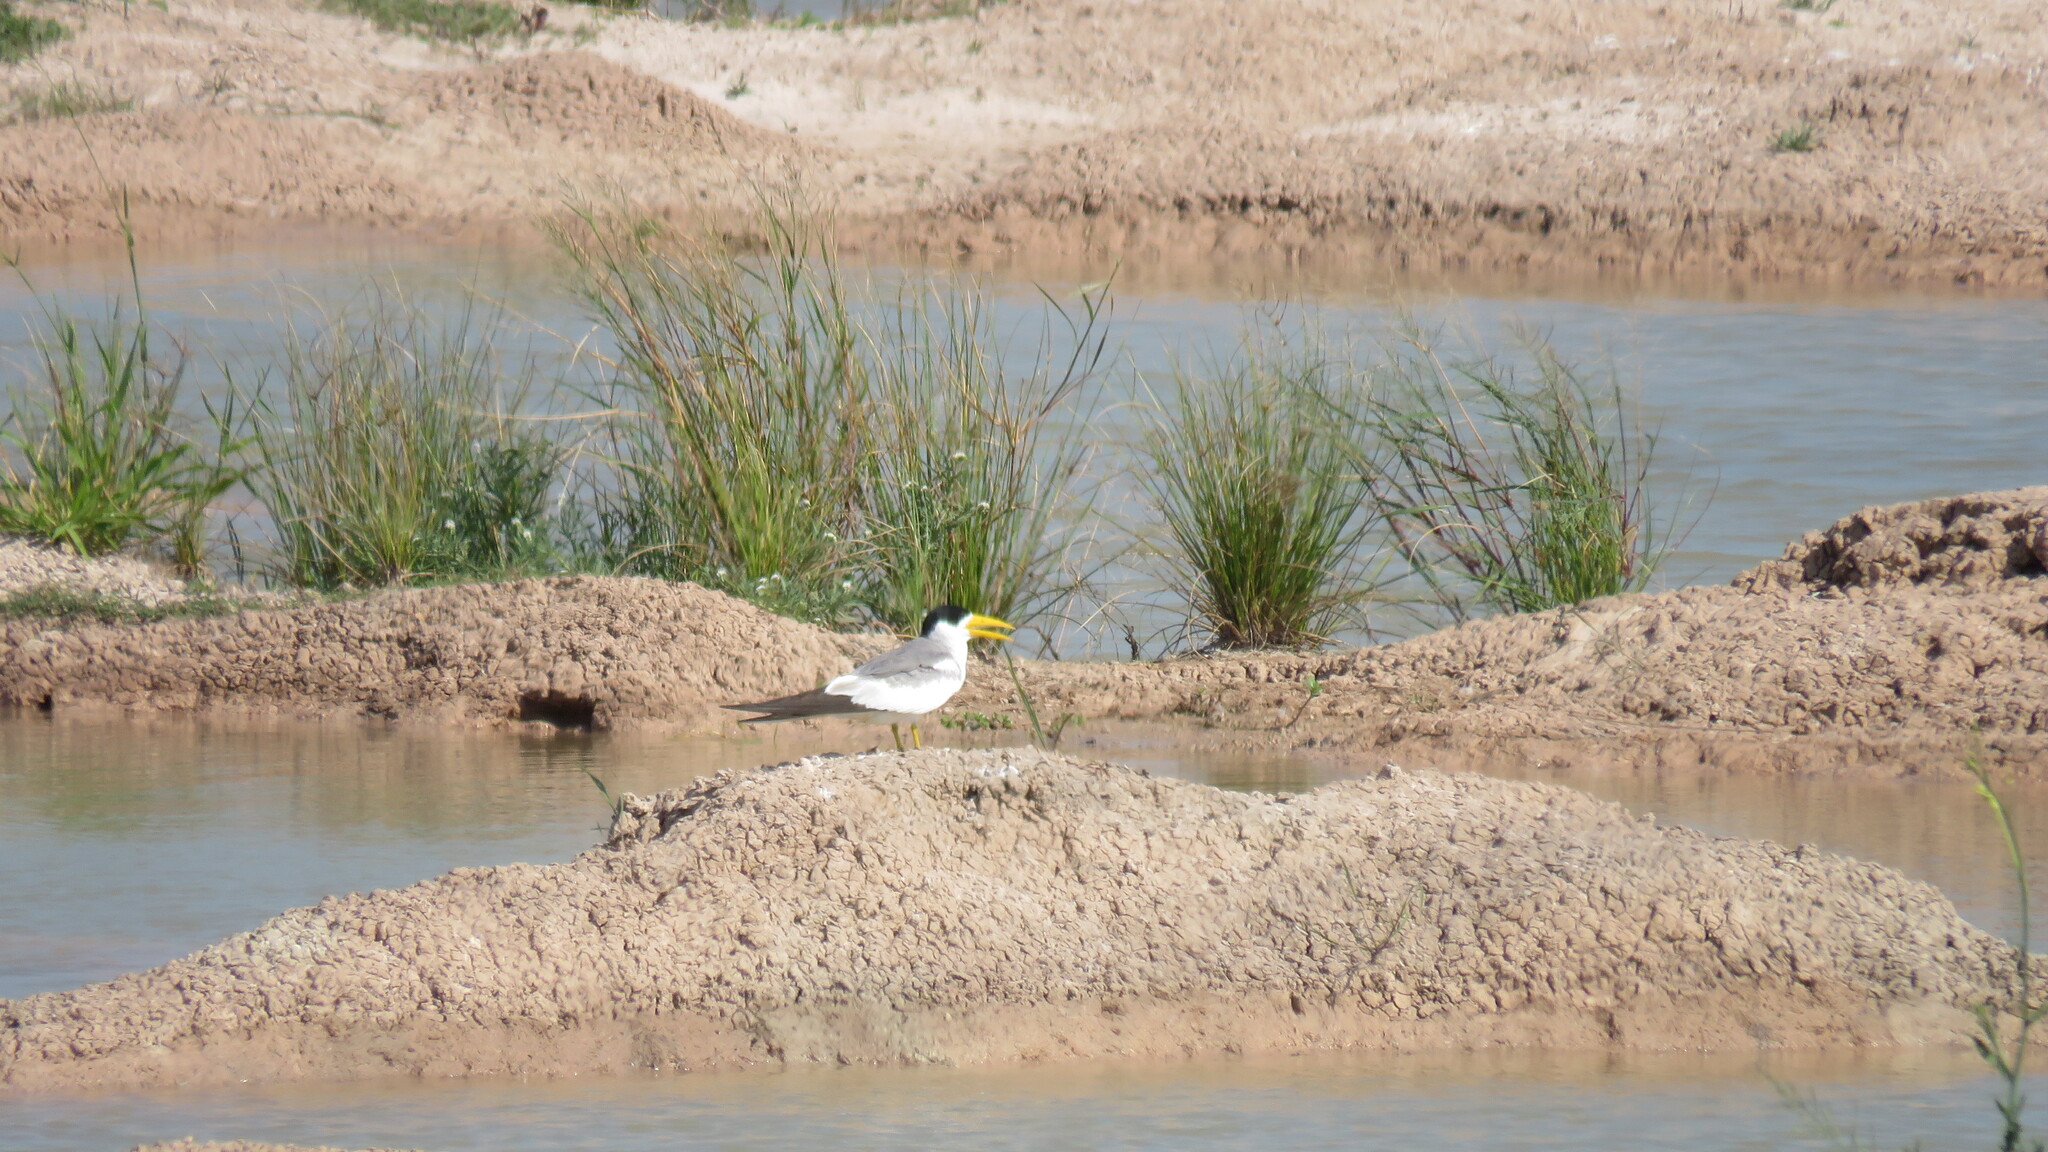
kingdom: Animalia
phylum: Chordata
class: Aves
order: Charadriiformes
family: Laridae
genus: Phaetusa
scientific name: Phaetusa simplex
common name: Large-billed tern
